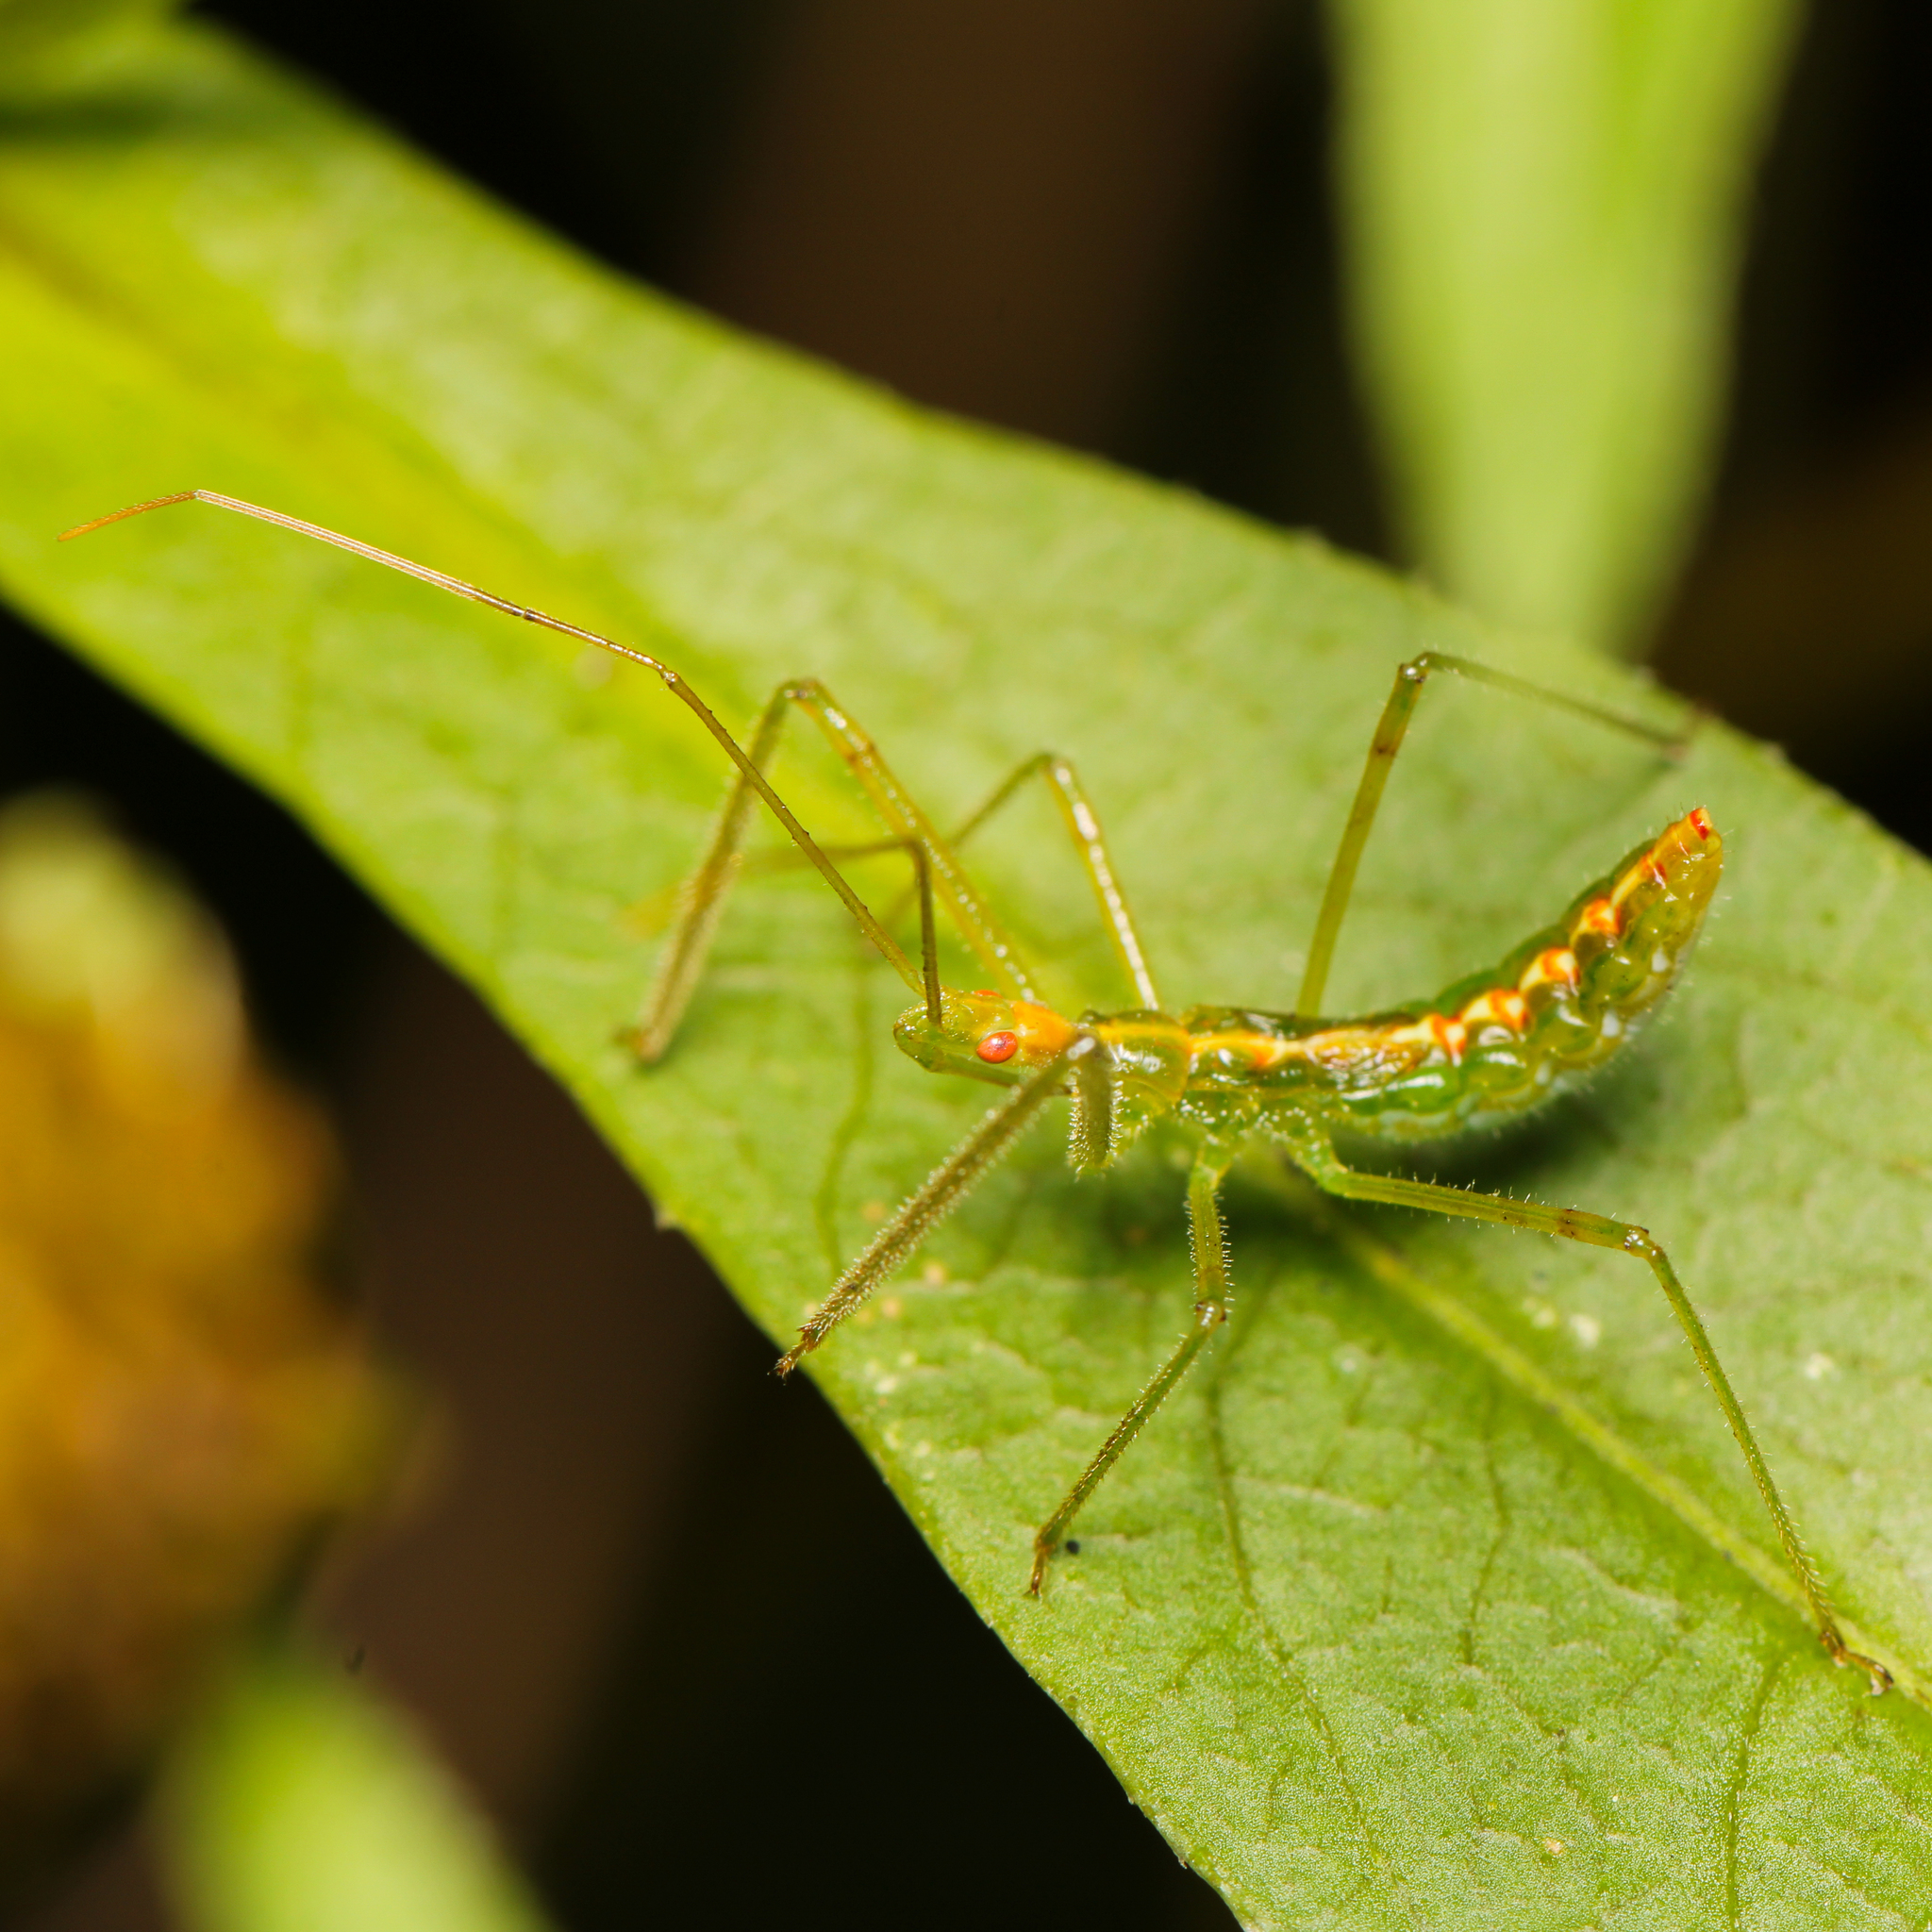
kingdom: Animalia
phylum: Arthropoda
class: Insecta
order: Hemiptera
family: Reduviidae
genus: Zelus
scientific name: Zelus luridus
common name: Pale green assassin bug
